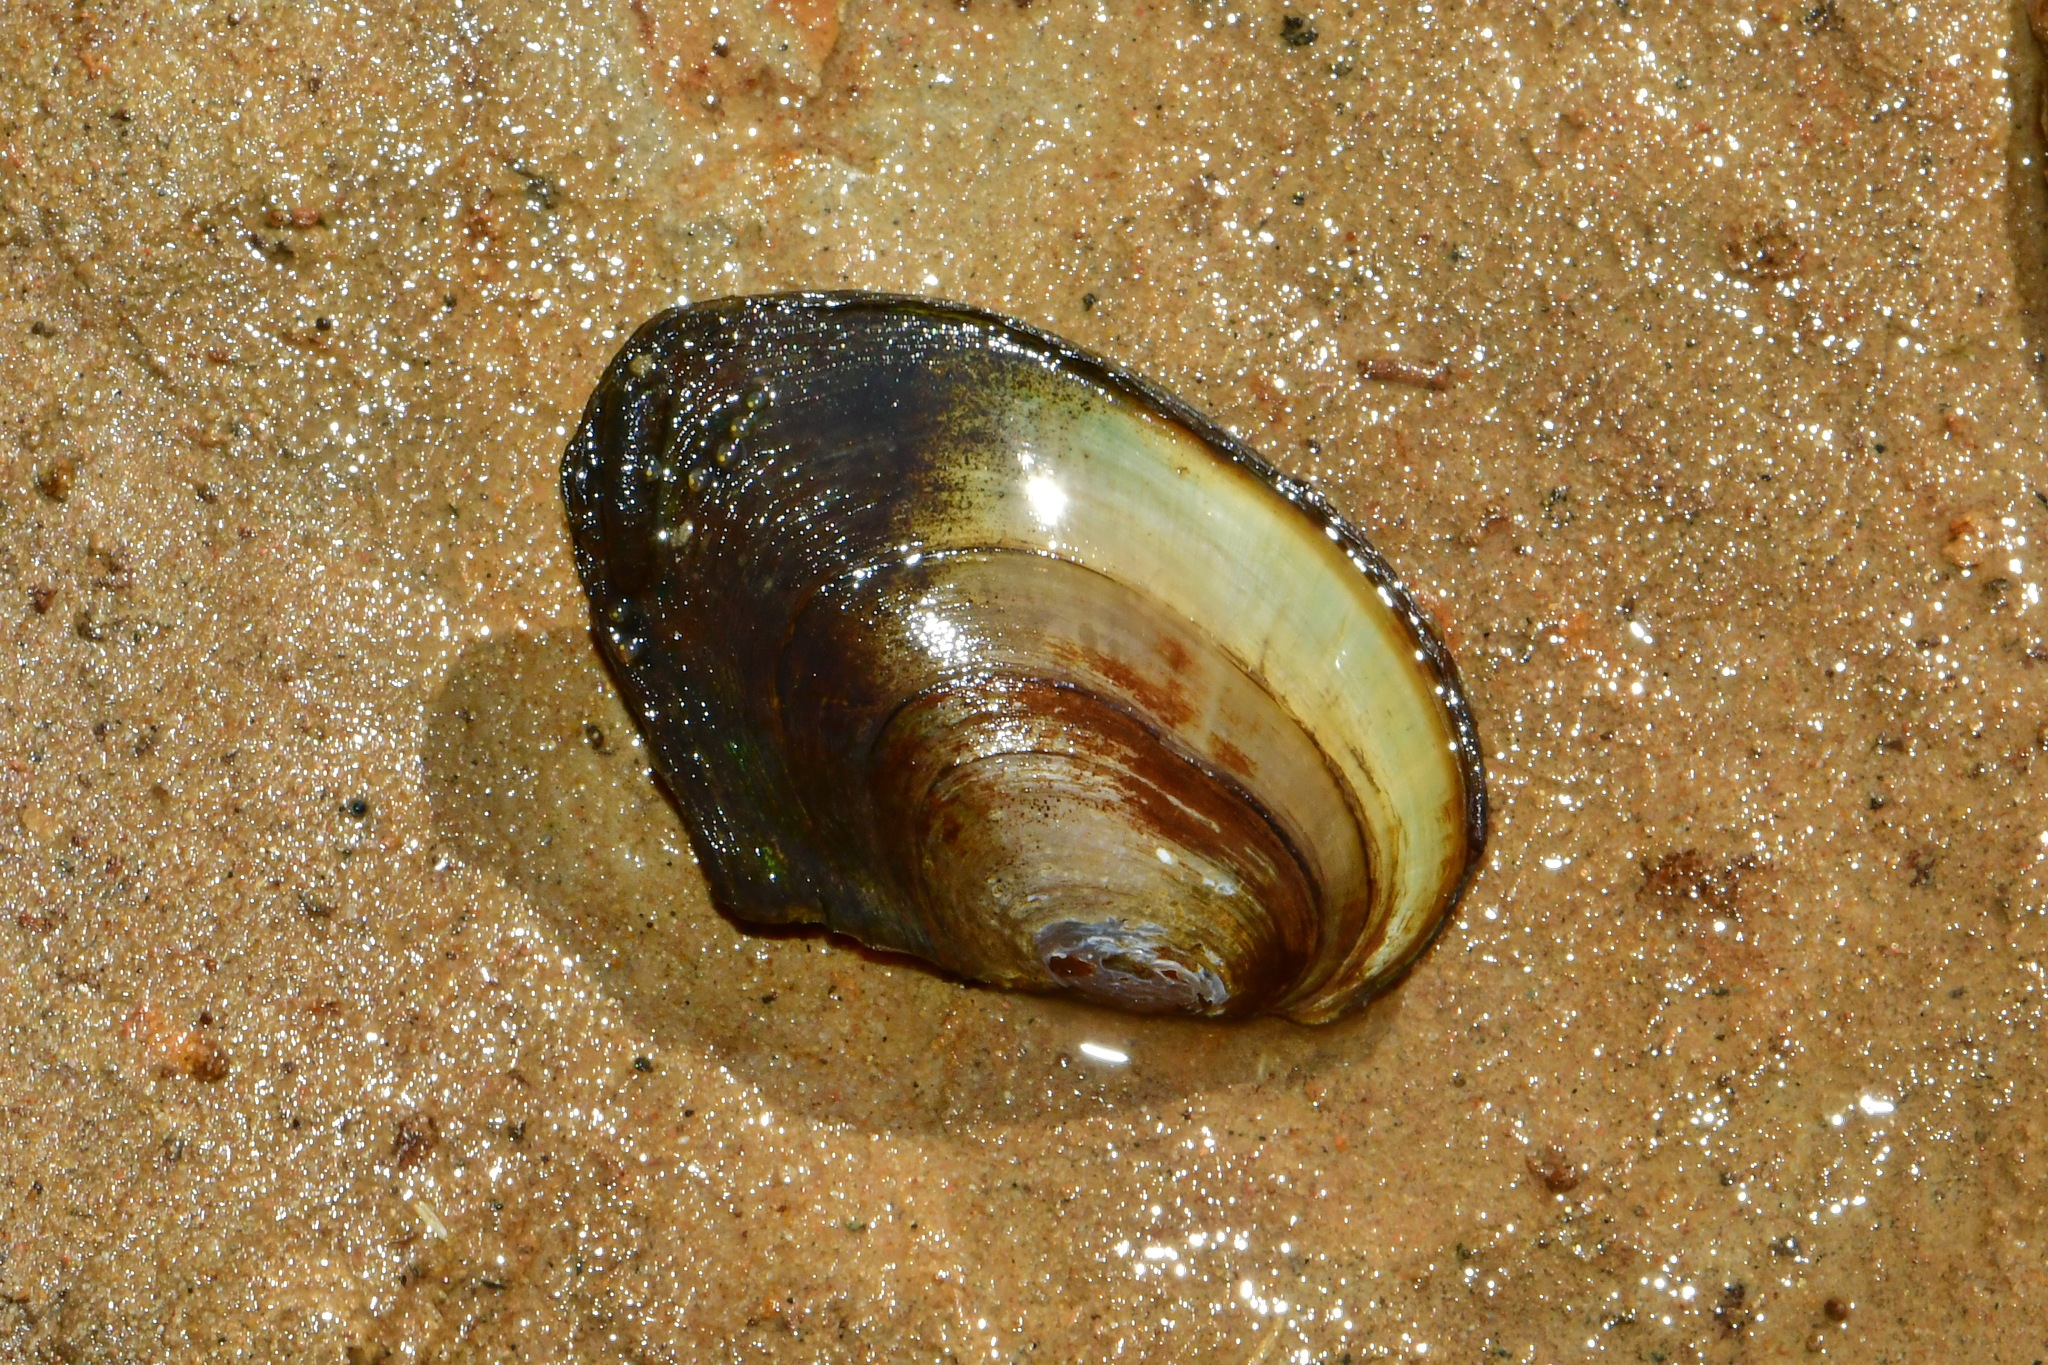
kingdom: Animalia
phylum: Mollusca
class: Bivalvia
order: Unionida
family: Unionidae
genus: Anodonta
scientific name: Anodonta anatina
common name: Duck mussel
